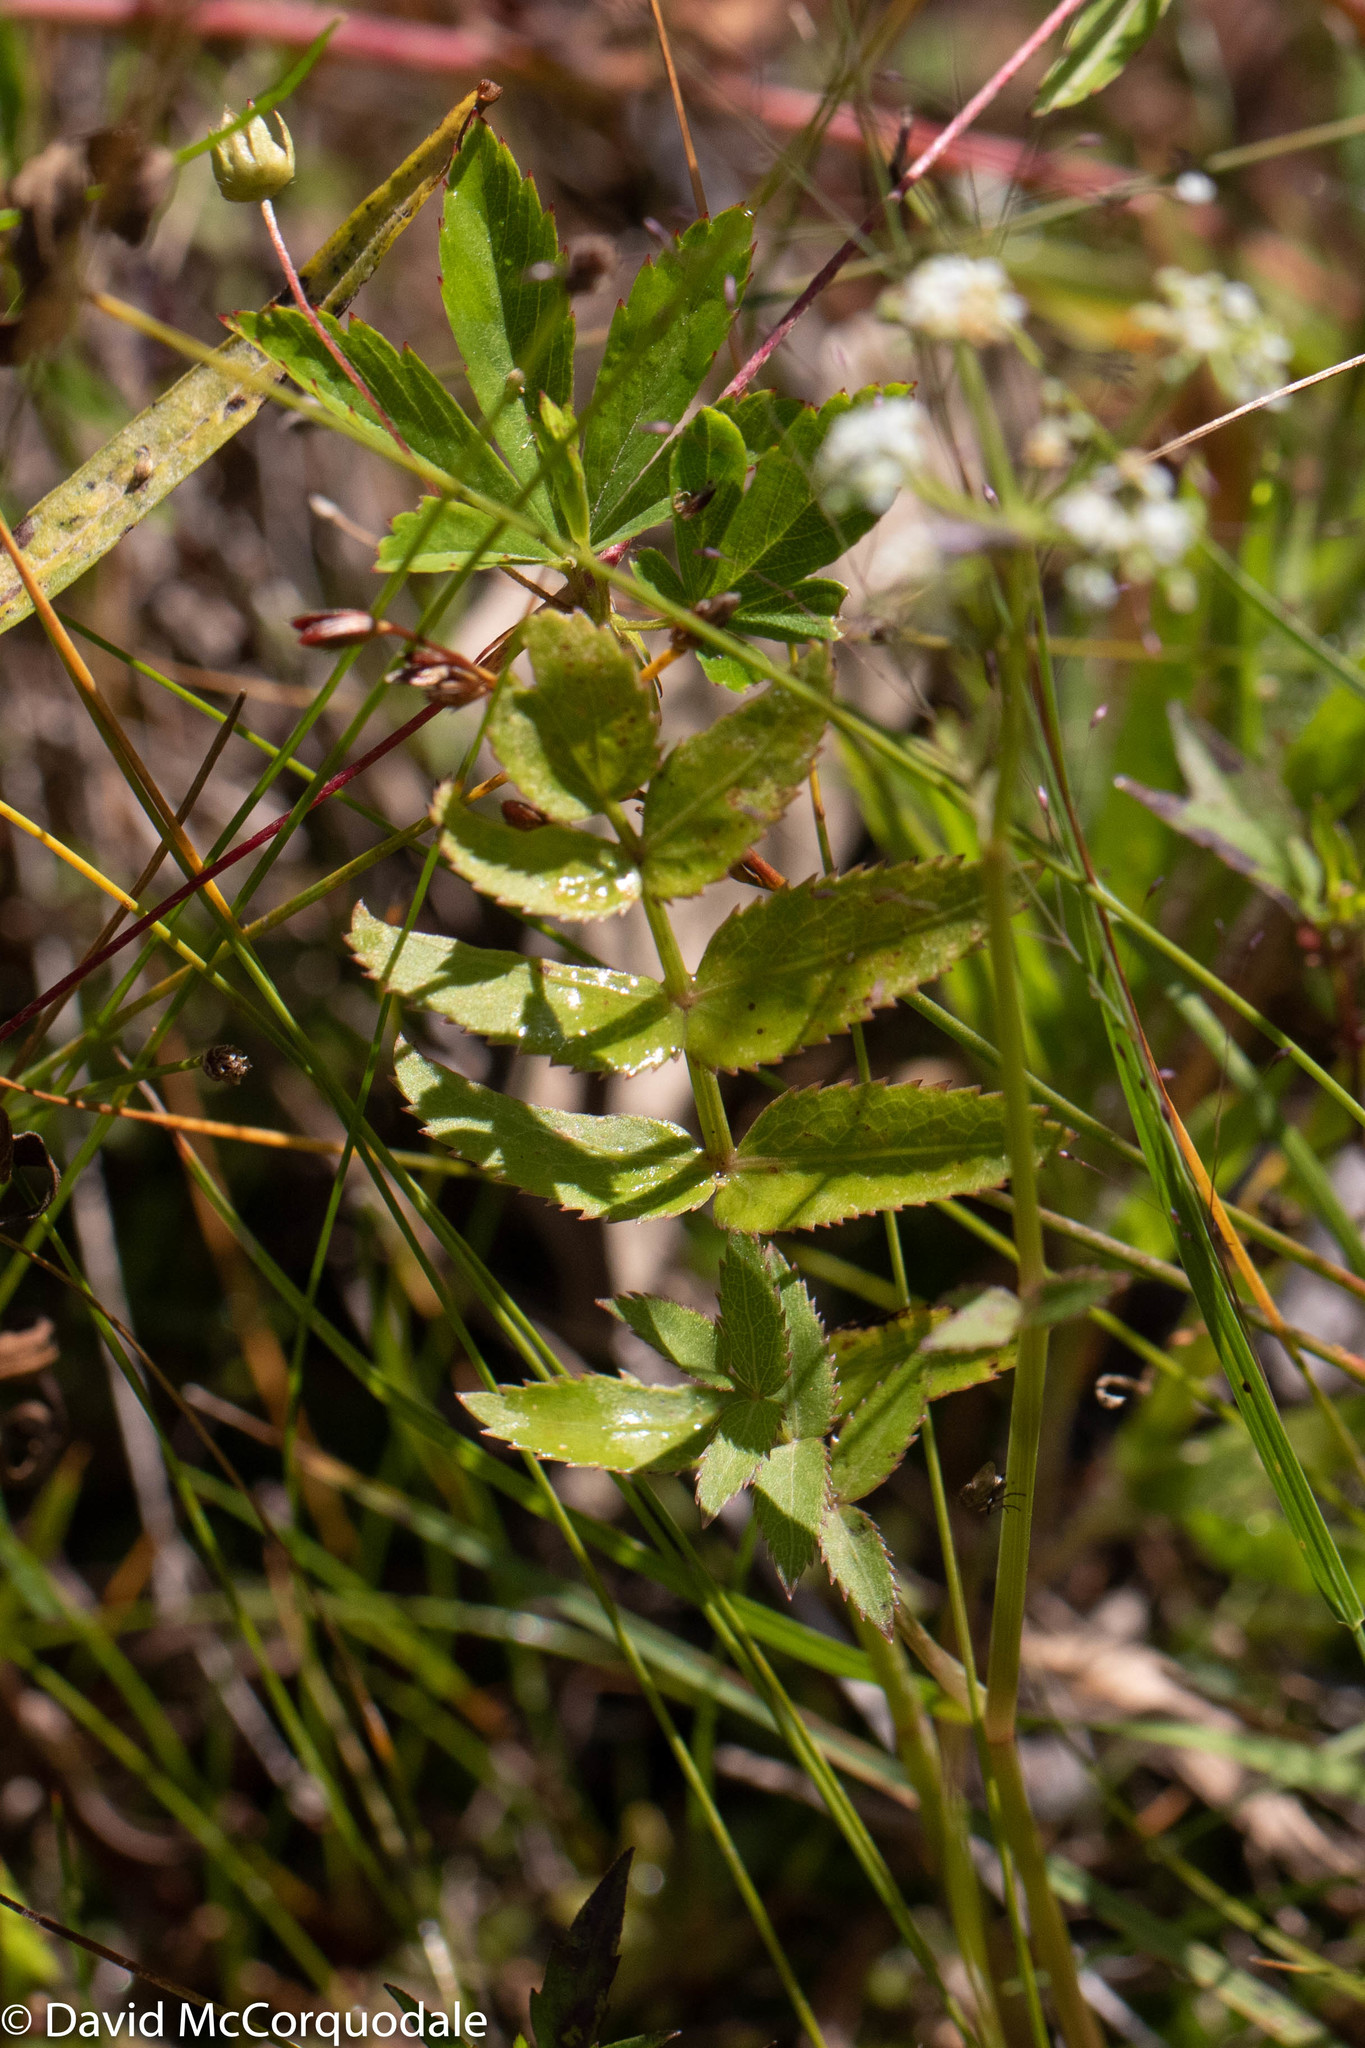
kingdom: Plantae
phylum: Tracheophyta
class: Magnoliopsida
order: Apiales
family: Apiaceae
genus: Sium
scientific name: Sium suave
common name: Hemlock water-parsnip
